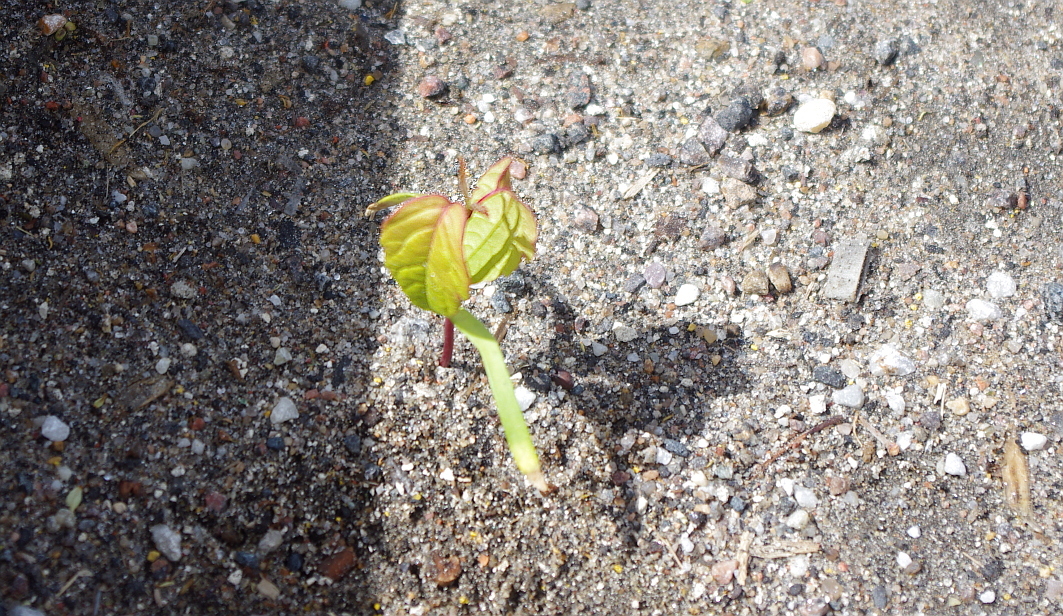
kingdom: Plantae
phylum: Tracheophyta
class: Magnoliopsida
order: Sapindales
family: Sapindaceae
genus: Acer
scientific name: Acer negundo
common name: Ashleaf maple
